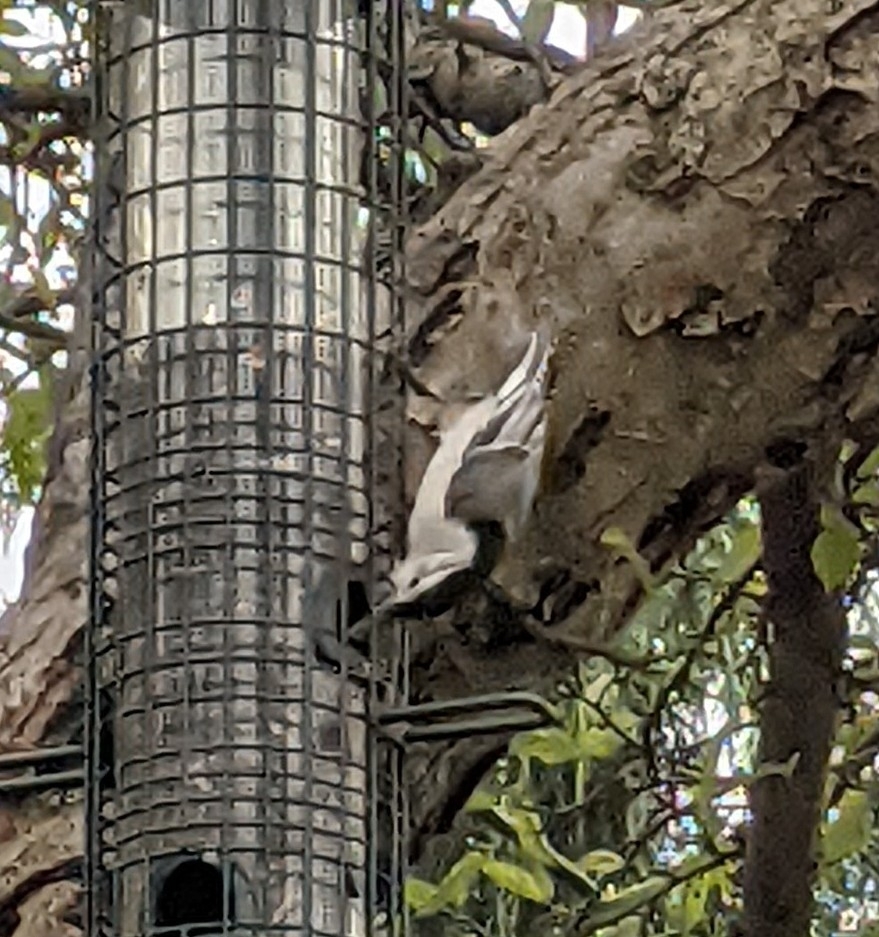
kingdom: Animalia
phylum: Chordata
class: Aves
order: Passeriformes
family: Sittidae
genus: Sitta
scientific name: Sitta carolinensis
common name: White-breasted nuthatch
